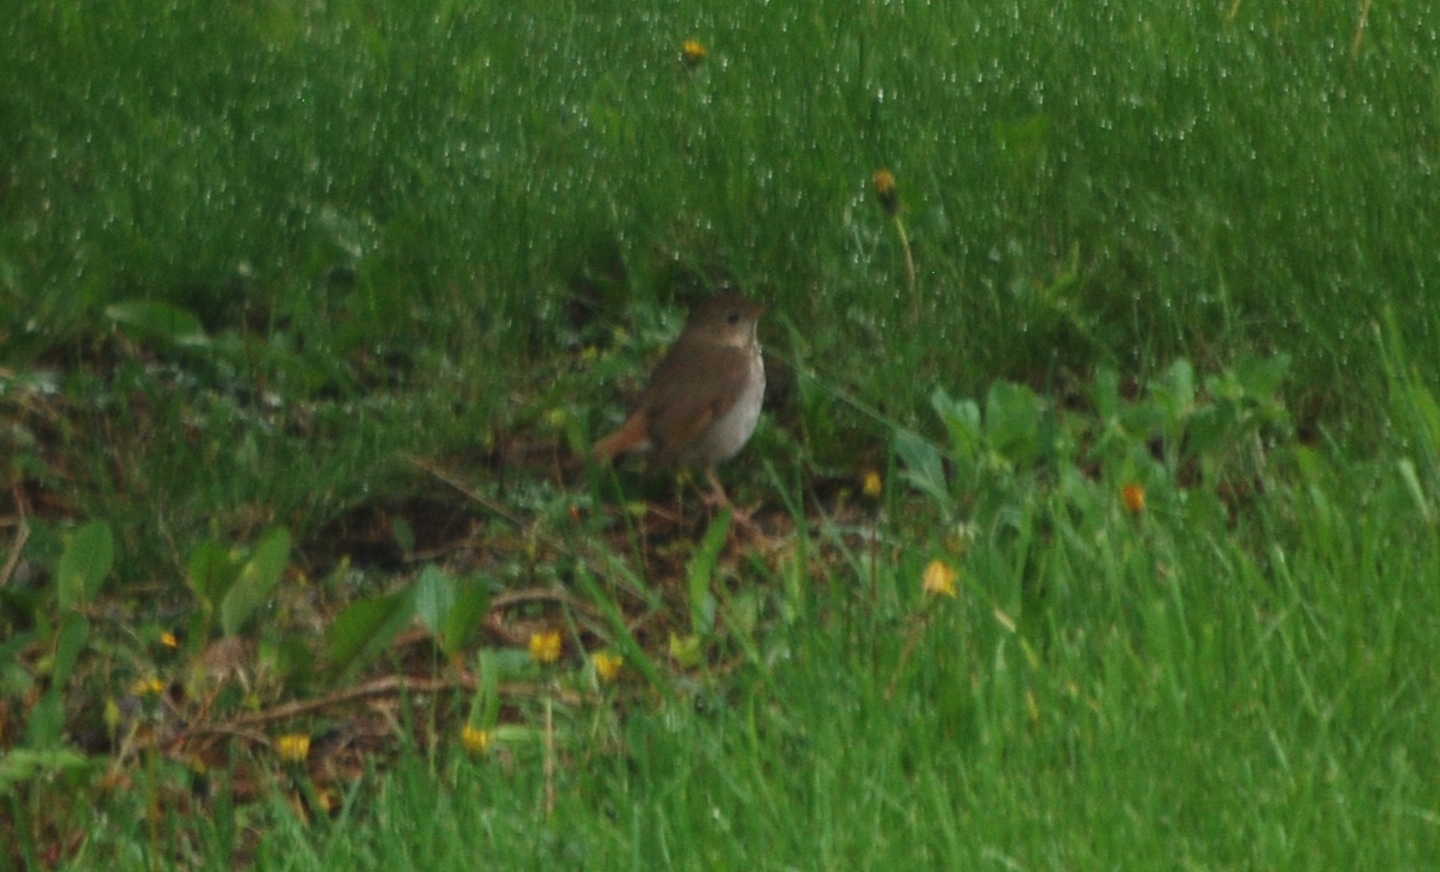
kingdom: Animalia
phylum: Chordata
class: Aves
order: Passeriformes
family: Turdidae
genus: Catharus
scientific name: Catharus guttatus
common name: Hermit thrush
